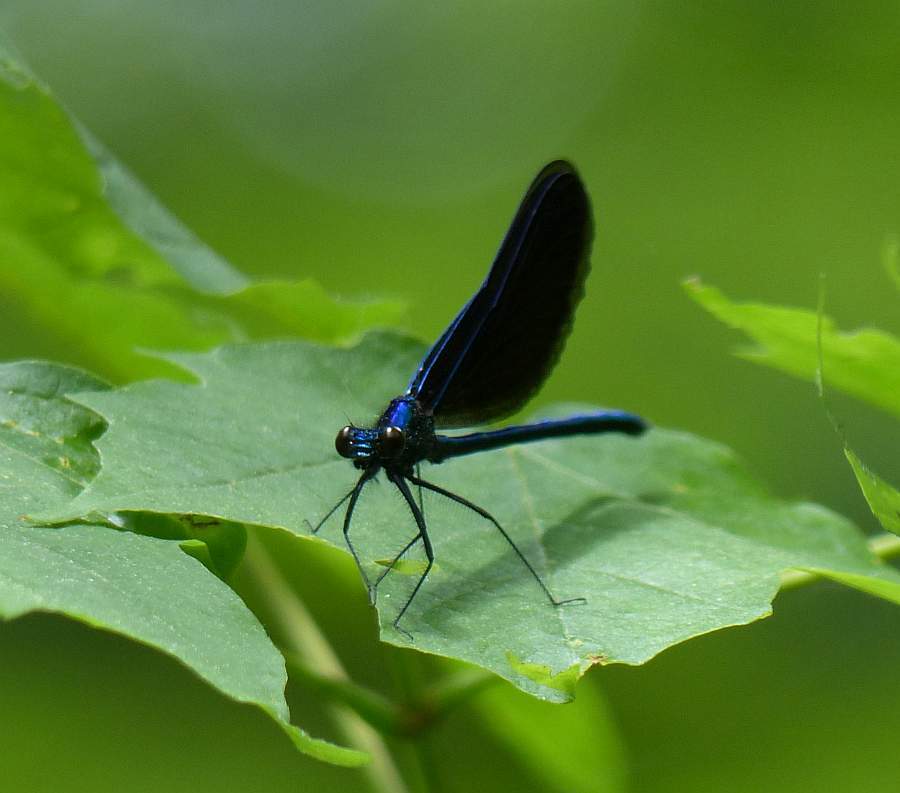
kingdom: Animalia
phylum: Arthropoda
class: Insecta
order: Odonata
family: Calopterygidae
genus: Calopteryx
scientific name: Calopteryx maculata
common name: Ebony jewelwing
